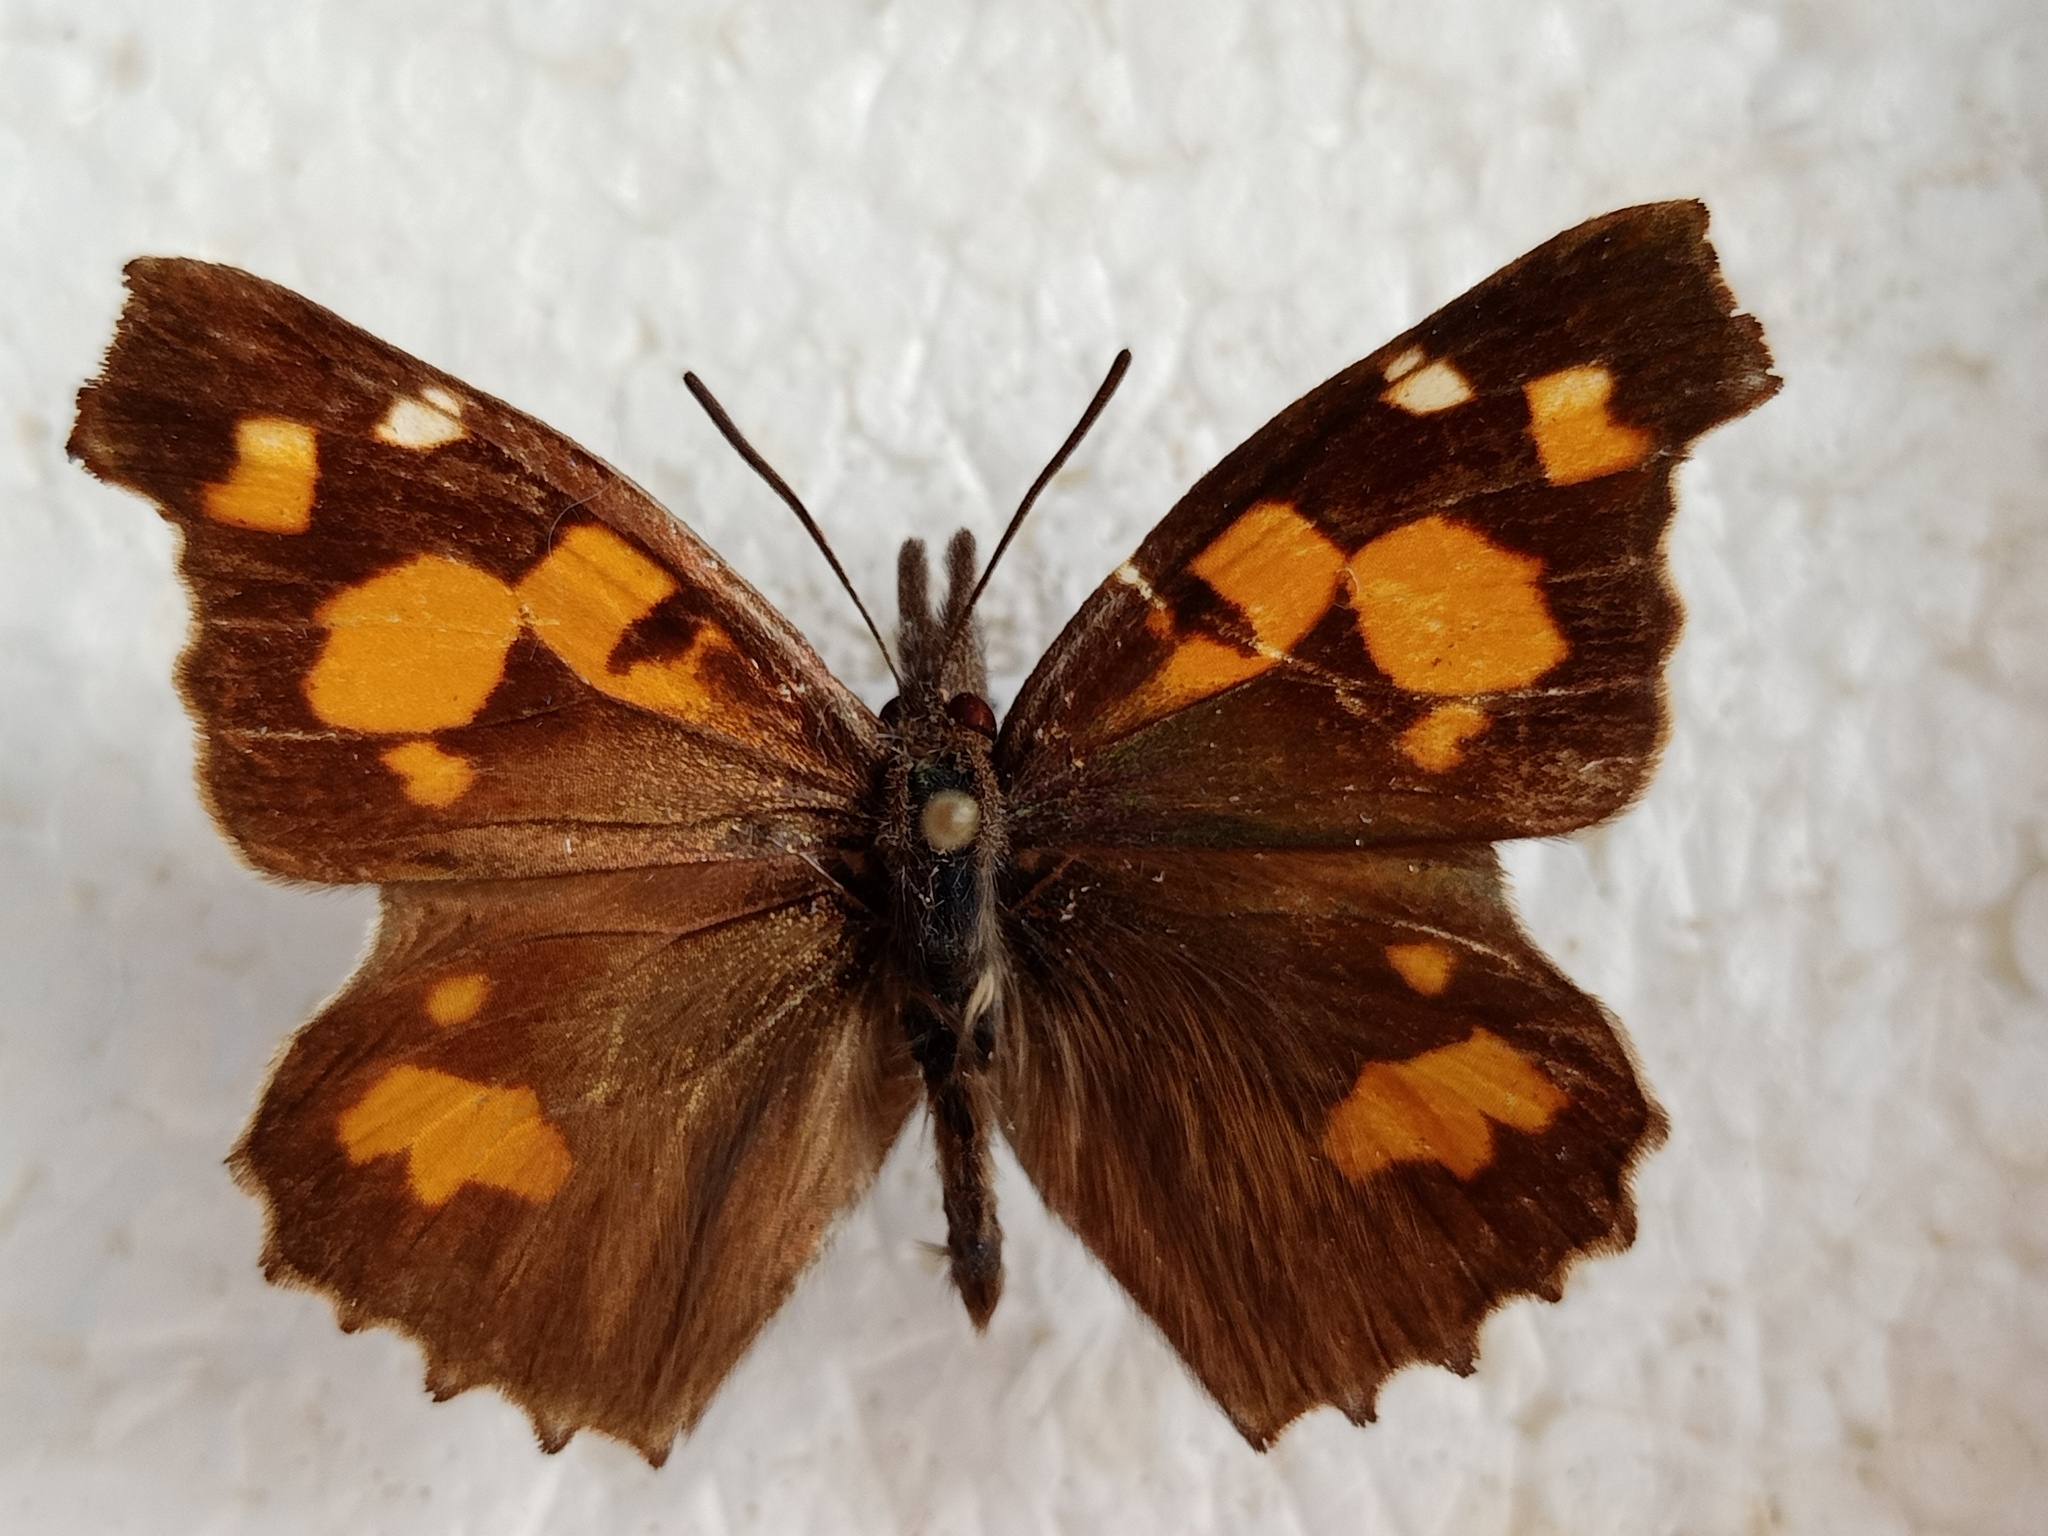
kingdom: Animalia
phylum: Arthropoda
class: Insecta
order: Lepidoptera
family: Nymphalidae
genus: Libythea
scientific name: Libythea celtis
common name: Nettle-tree butterfly
